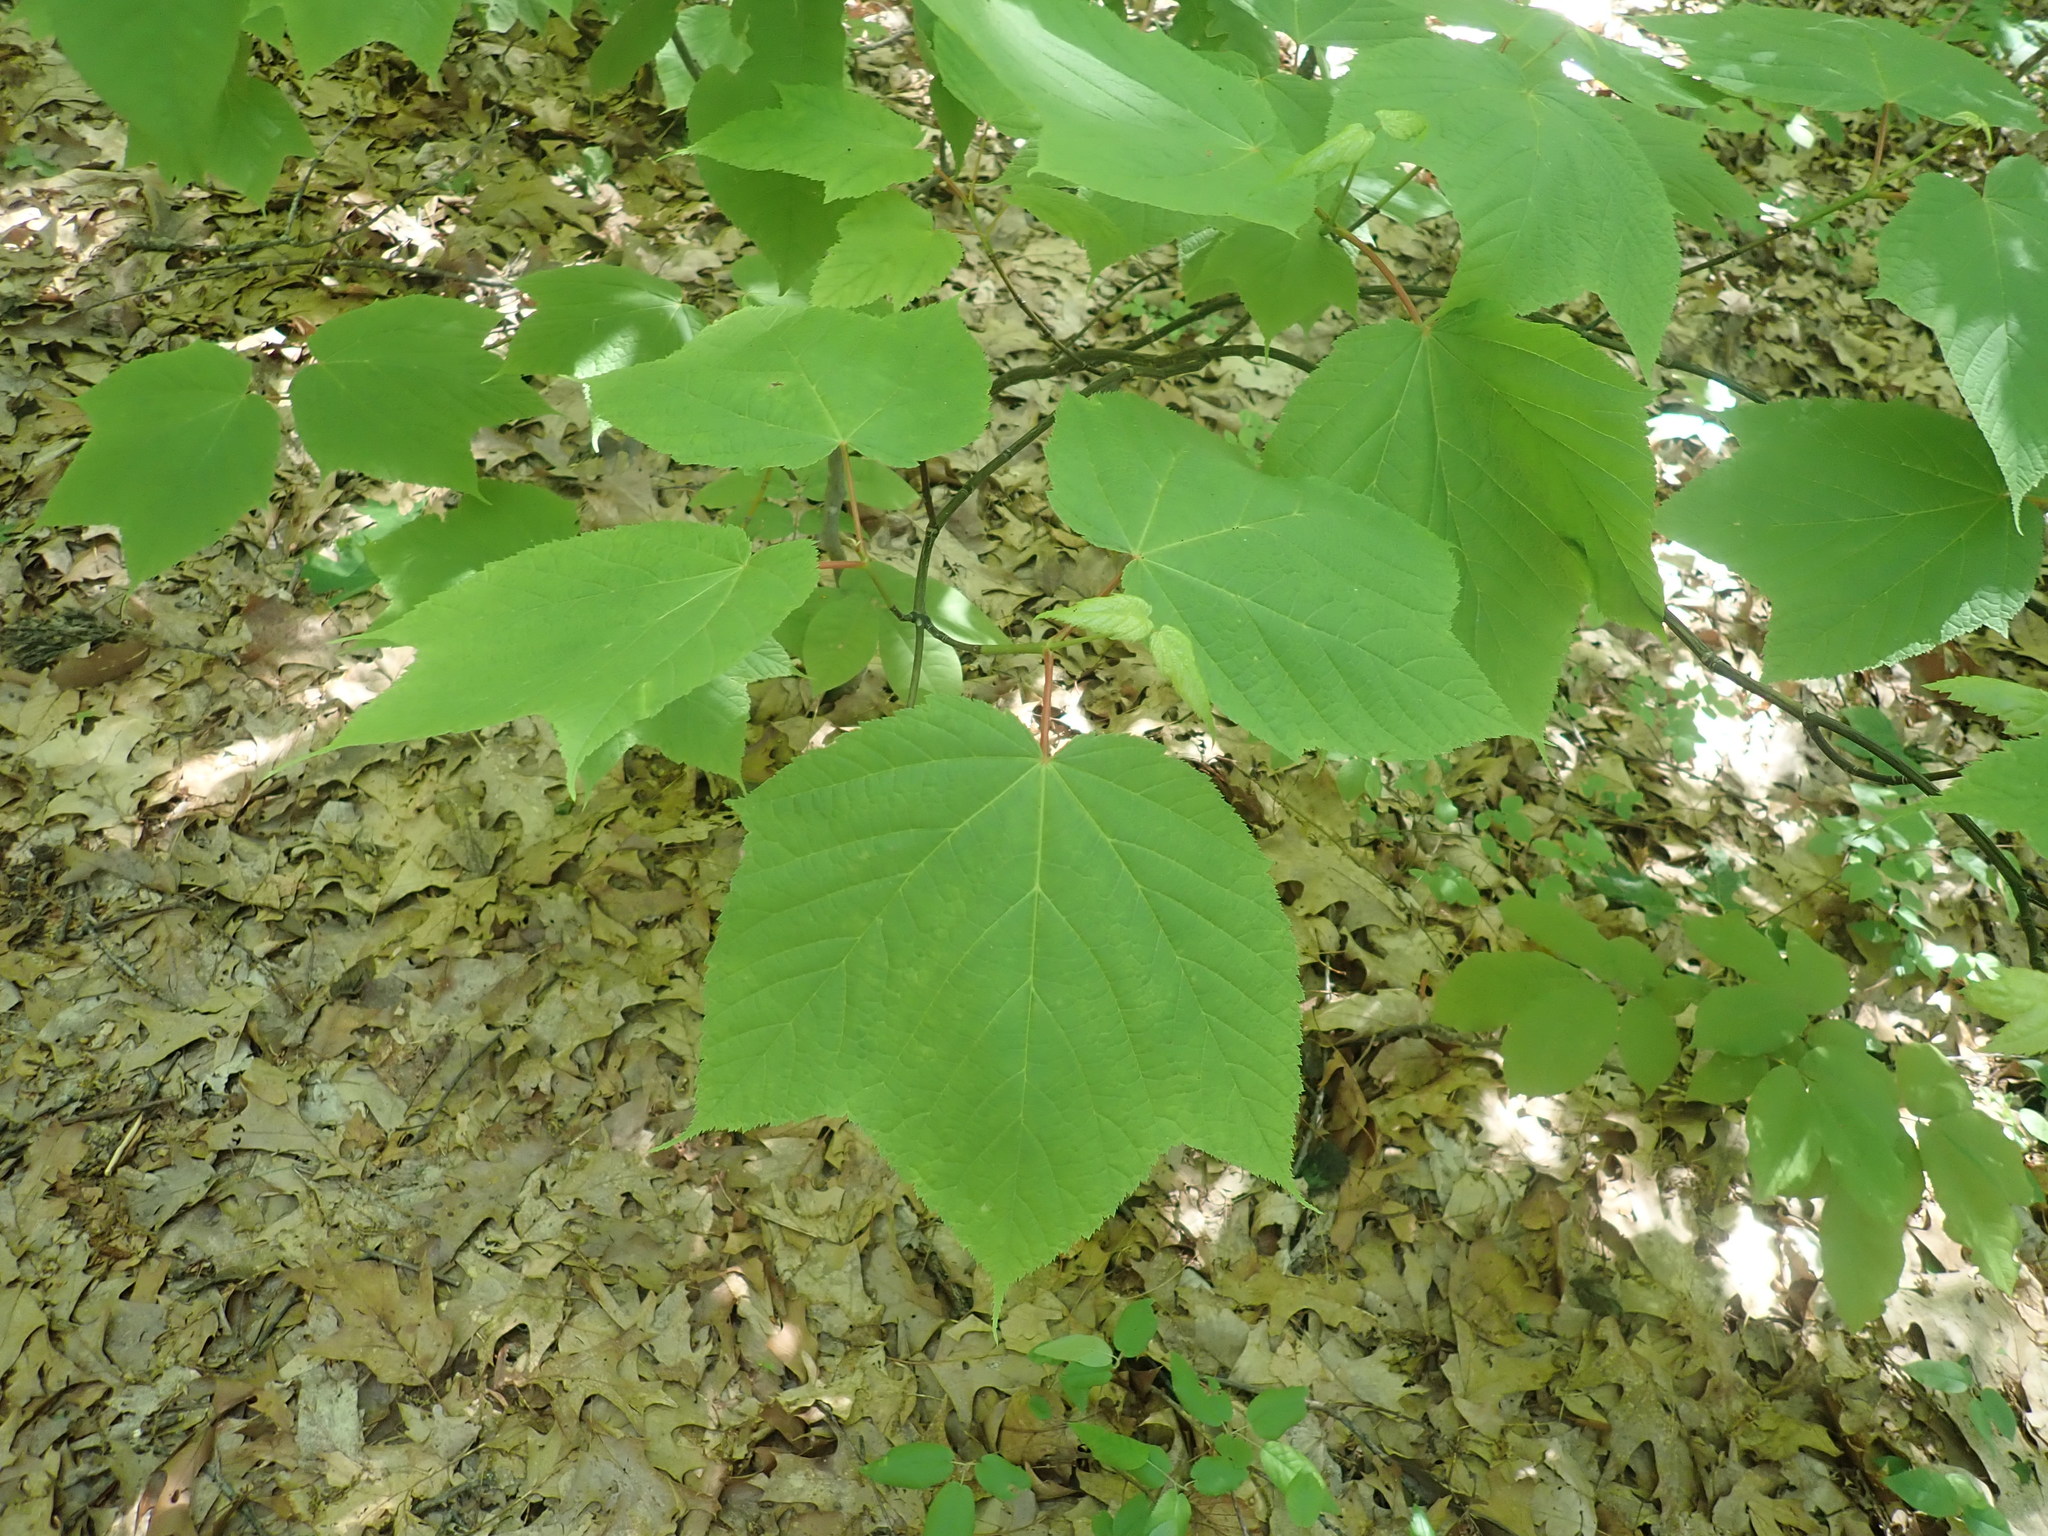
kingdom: Plantae
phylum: Tracheophyta
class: Magnoliopsida
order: Sapindales
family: Sapindaceae
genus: Acer
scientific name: Acer pensylvanicum
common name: Moosewood
